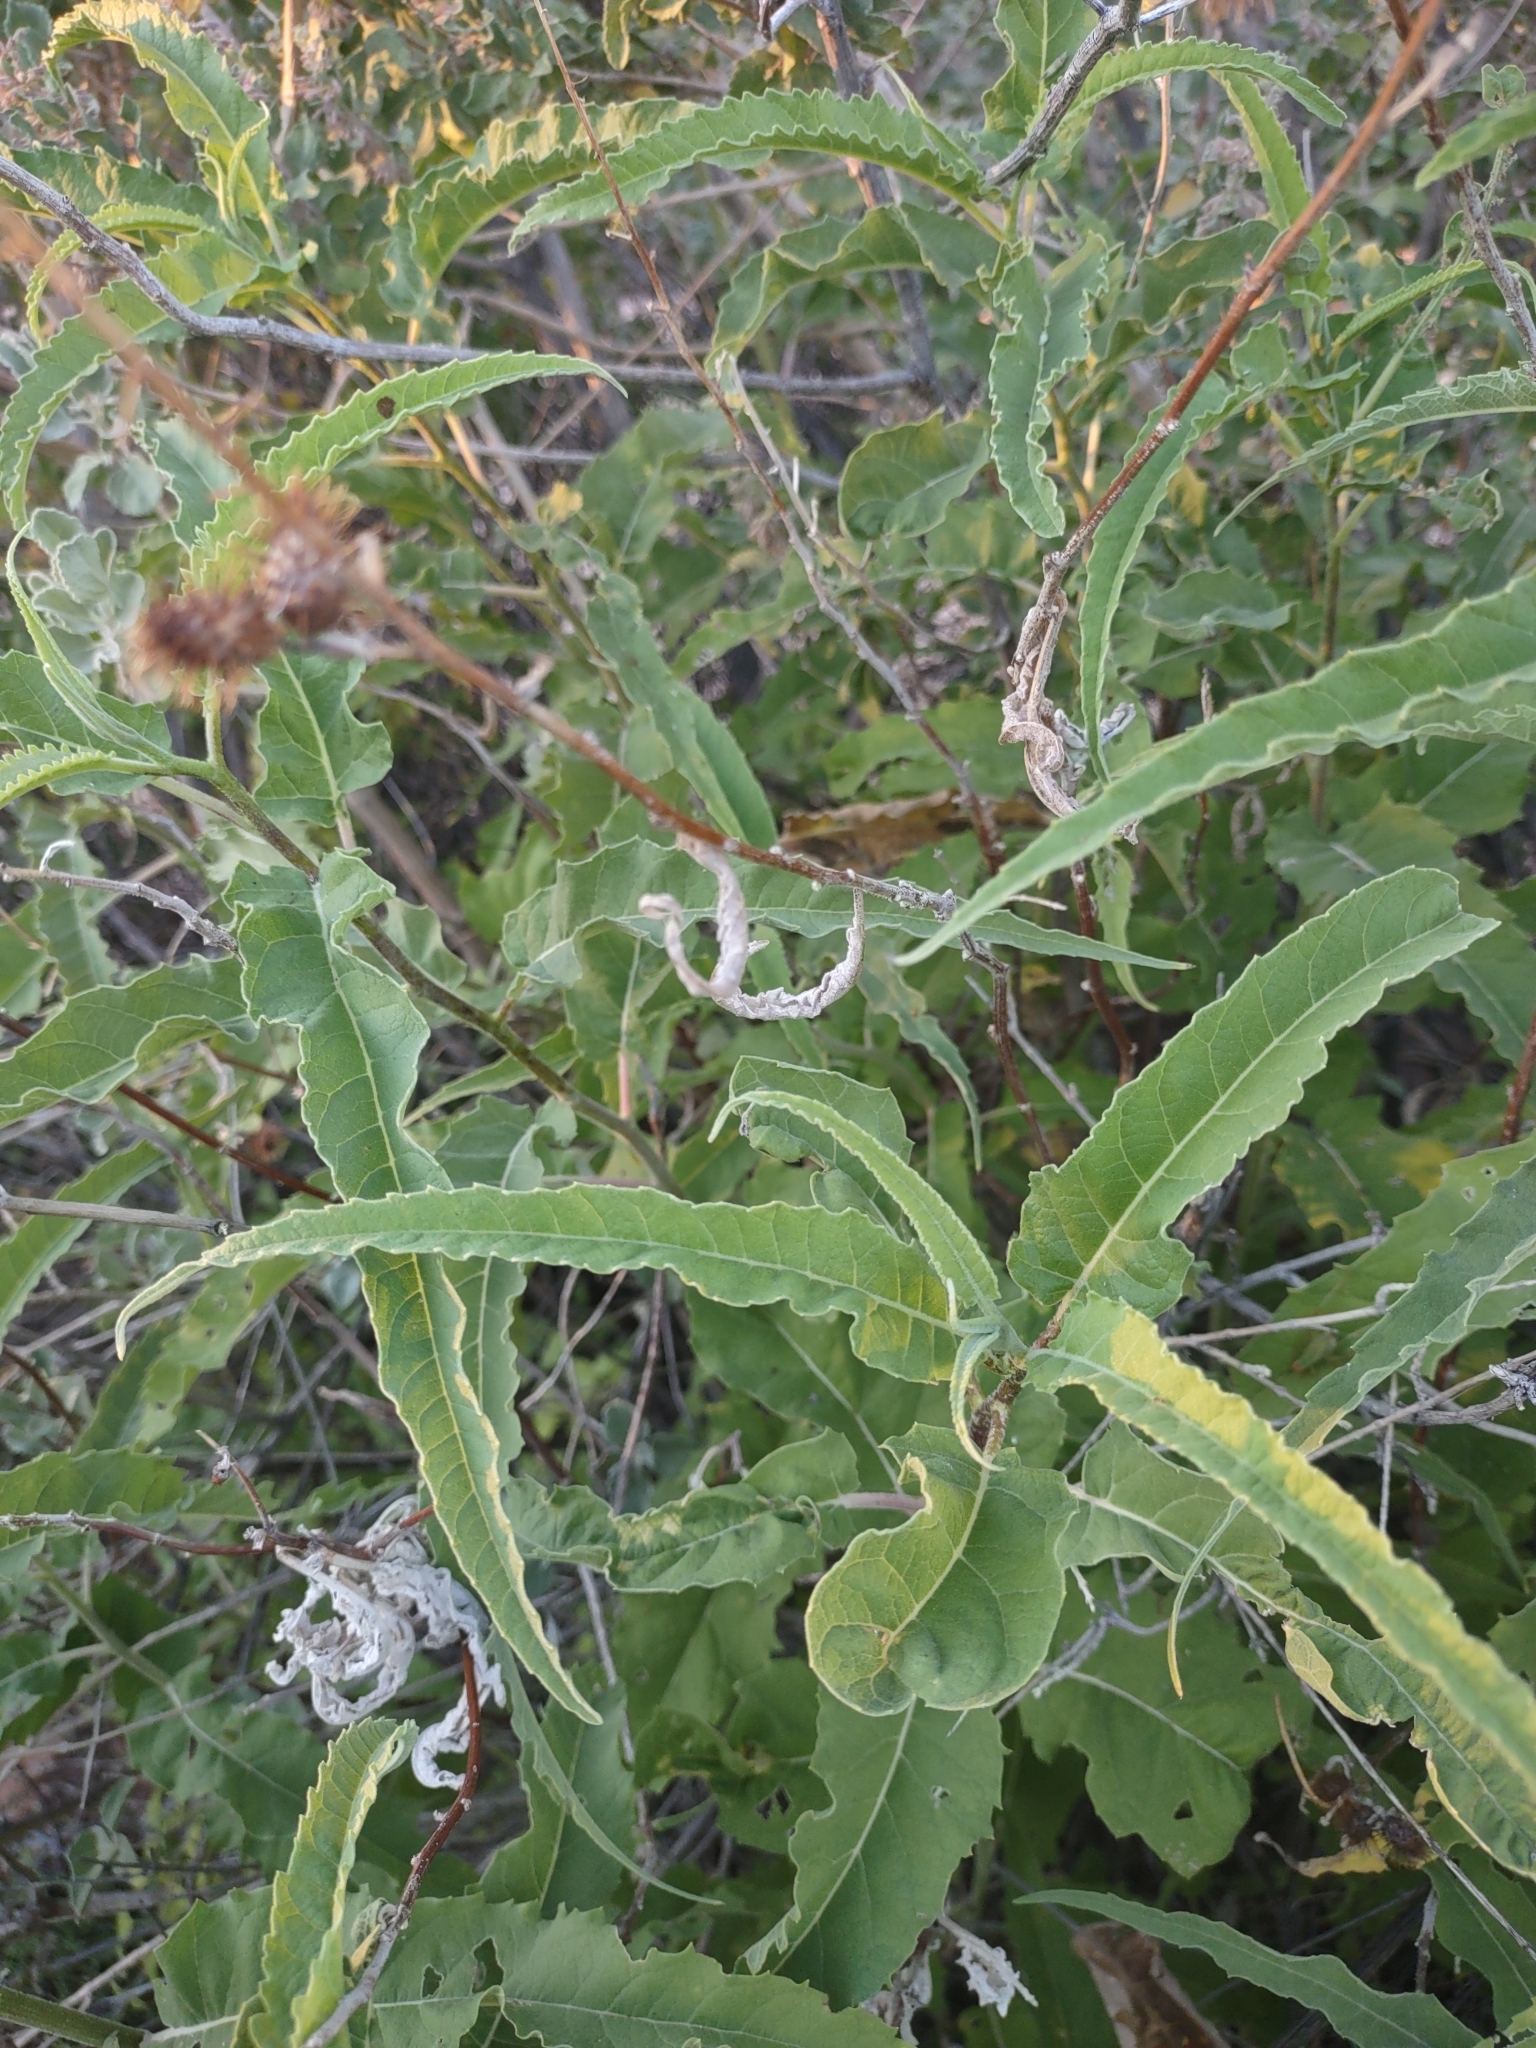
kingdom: Plantae
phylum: Tracheophyta
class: Magnoliopsida
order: Asterales
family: Asteraceae
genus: Ambrosia
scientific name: Ambrosia ambrosioides
